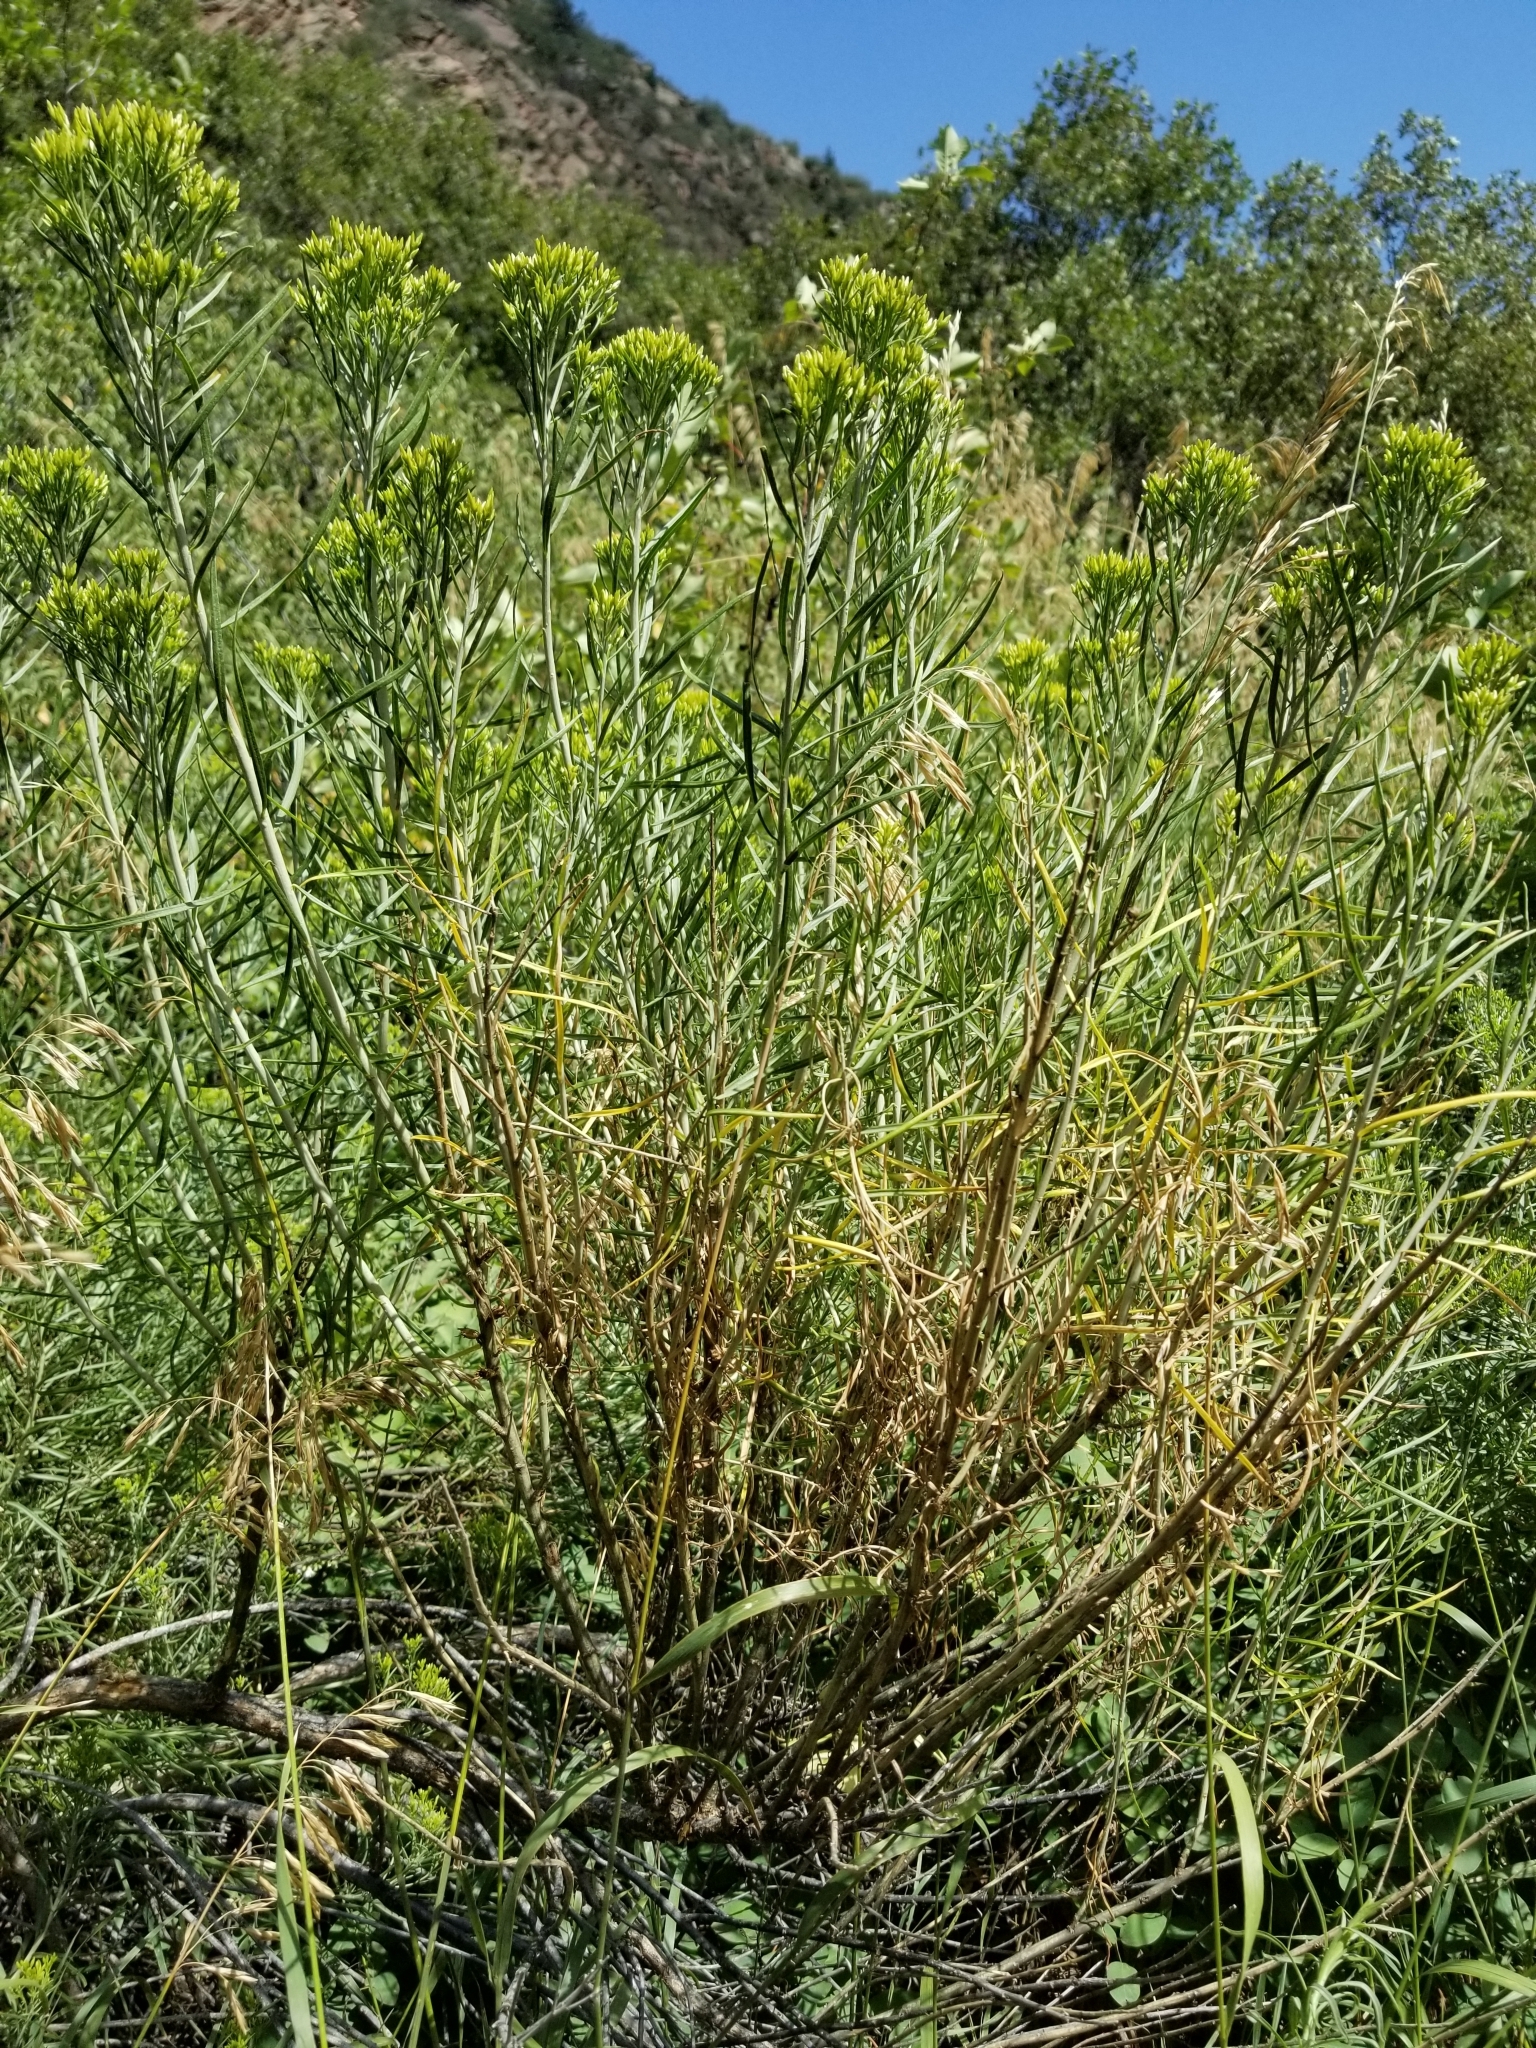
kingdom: Plantae
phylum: Tracheophyta
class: Magnoliopsida
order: Asterales
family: Asteraceae
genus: Ericameria
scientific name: Ericameria nauseosa
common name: Rubber rabbitbrush
